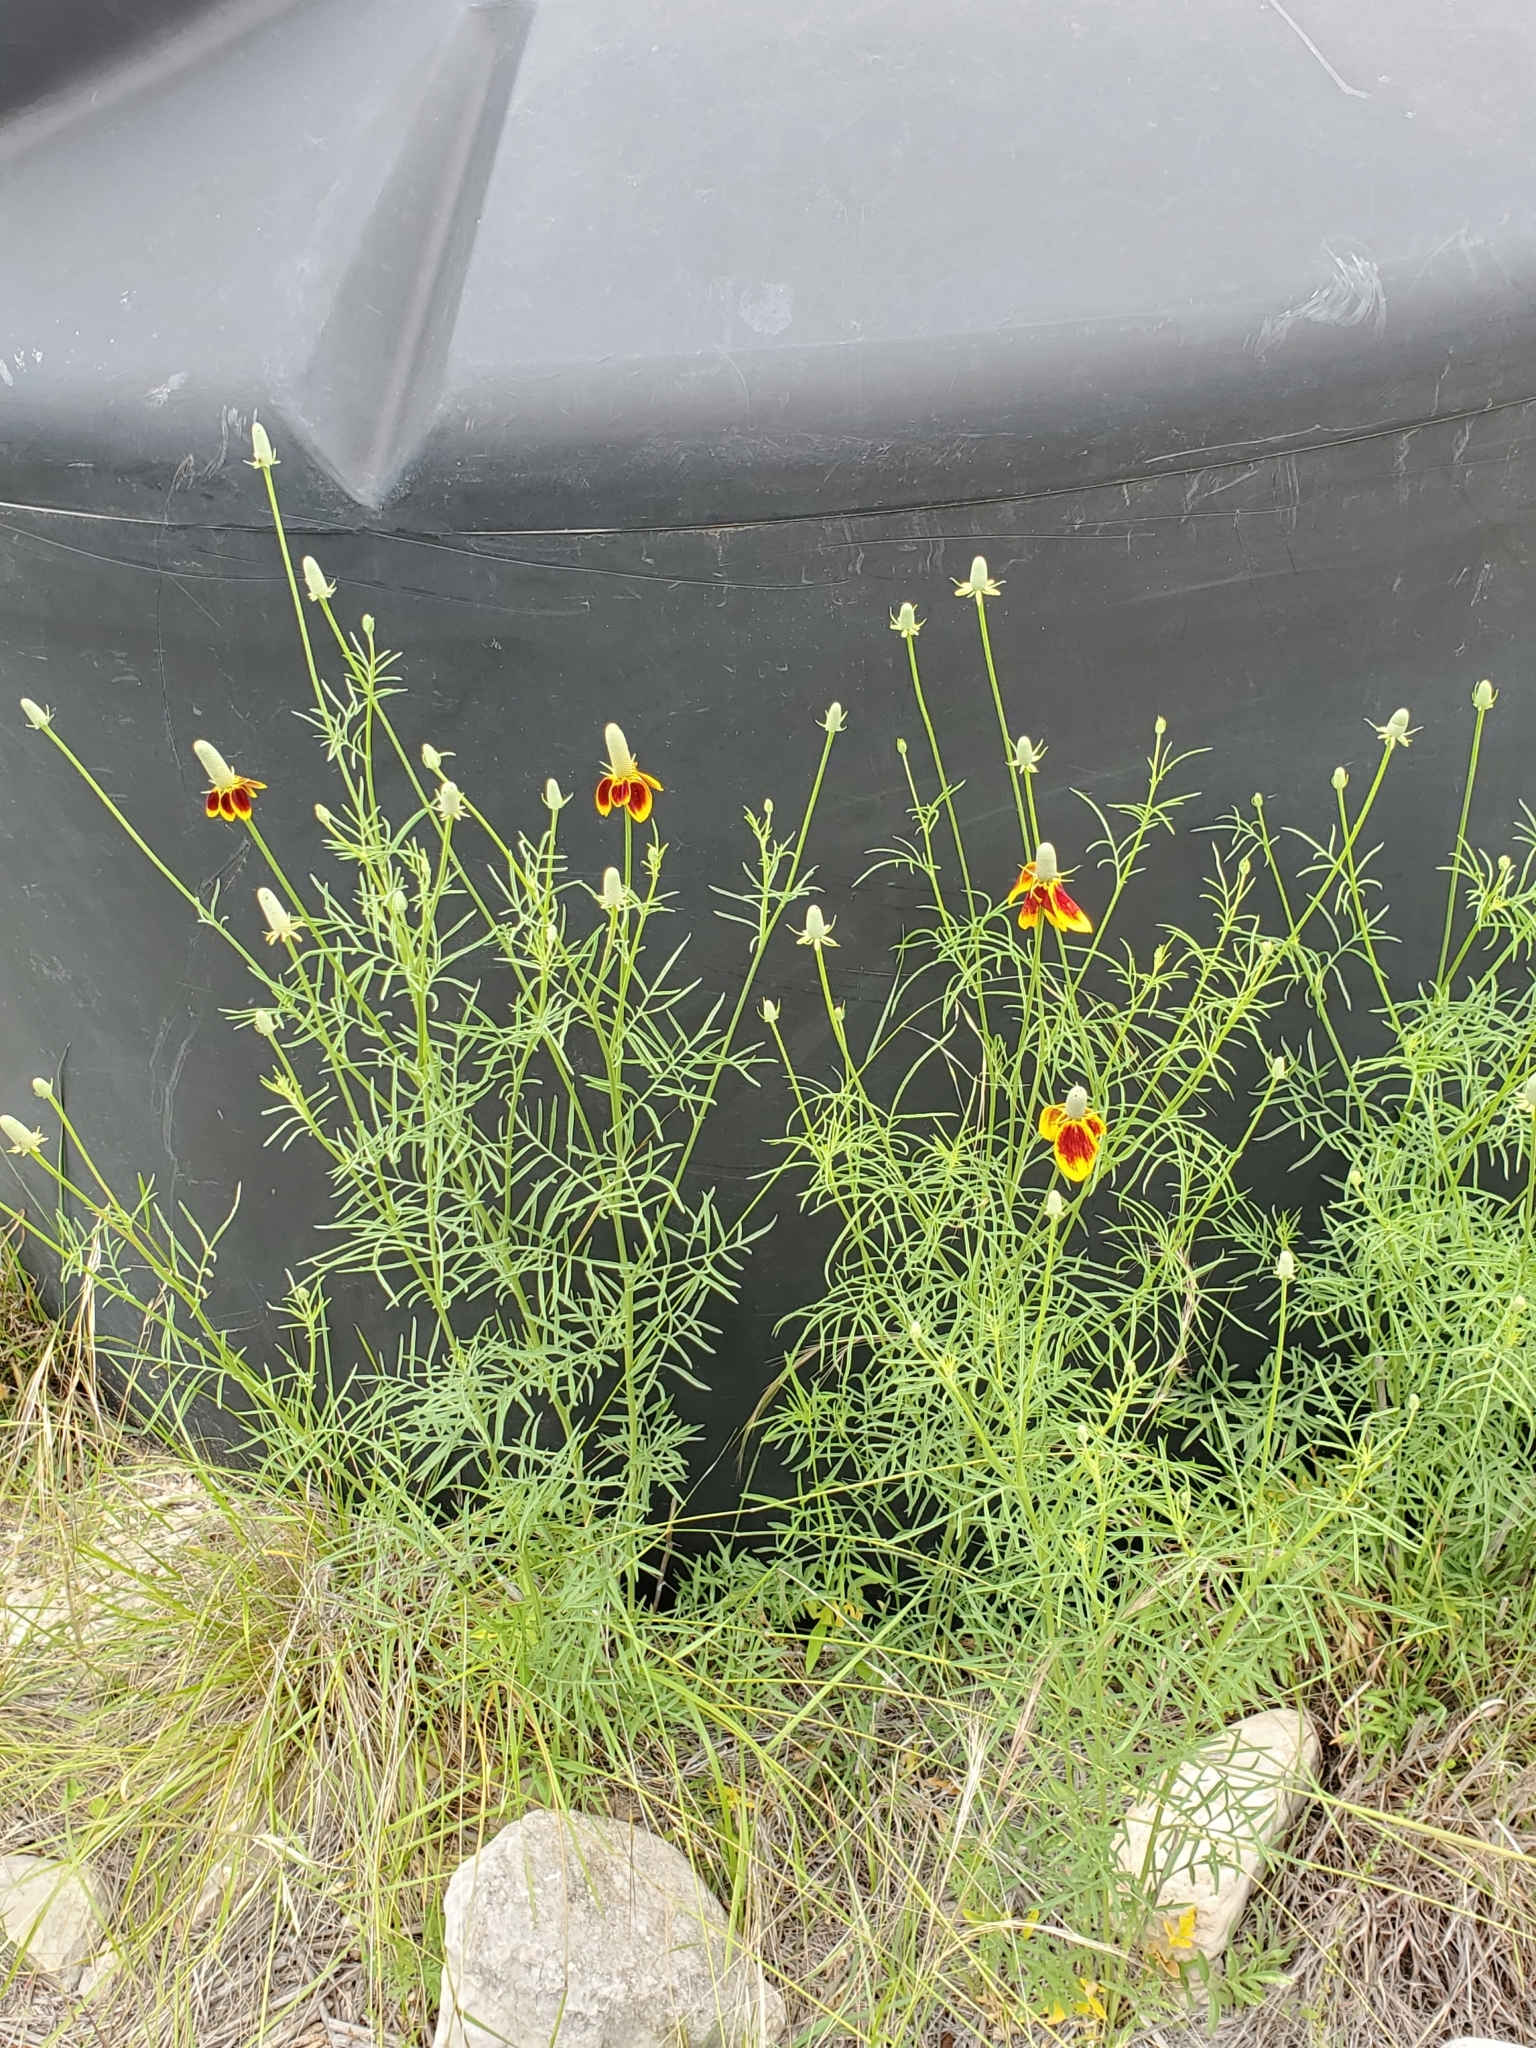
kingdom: Plantae
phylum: Tracheophyta
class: Magnoliopsida
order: Asterales
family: Asteraceae
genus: Ratibida
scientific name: Ratibida columnifera
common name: Prairie coneflower
